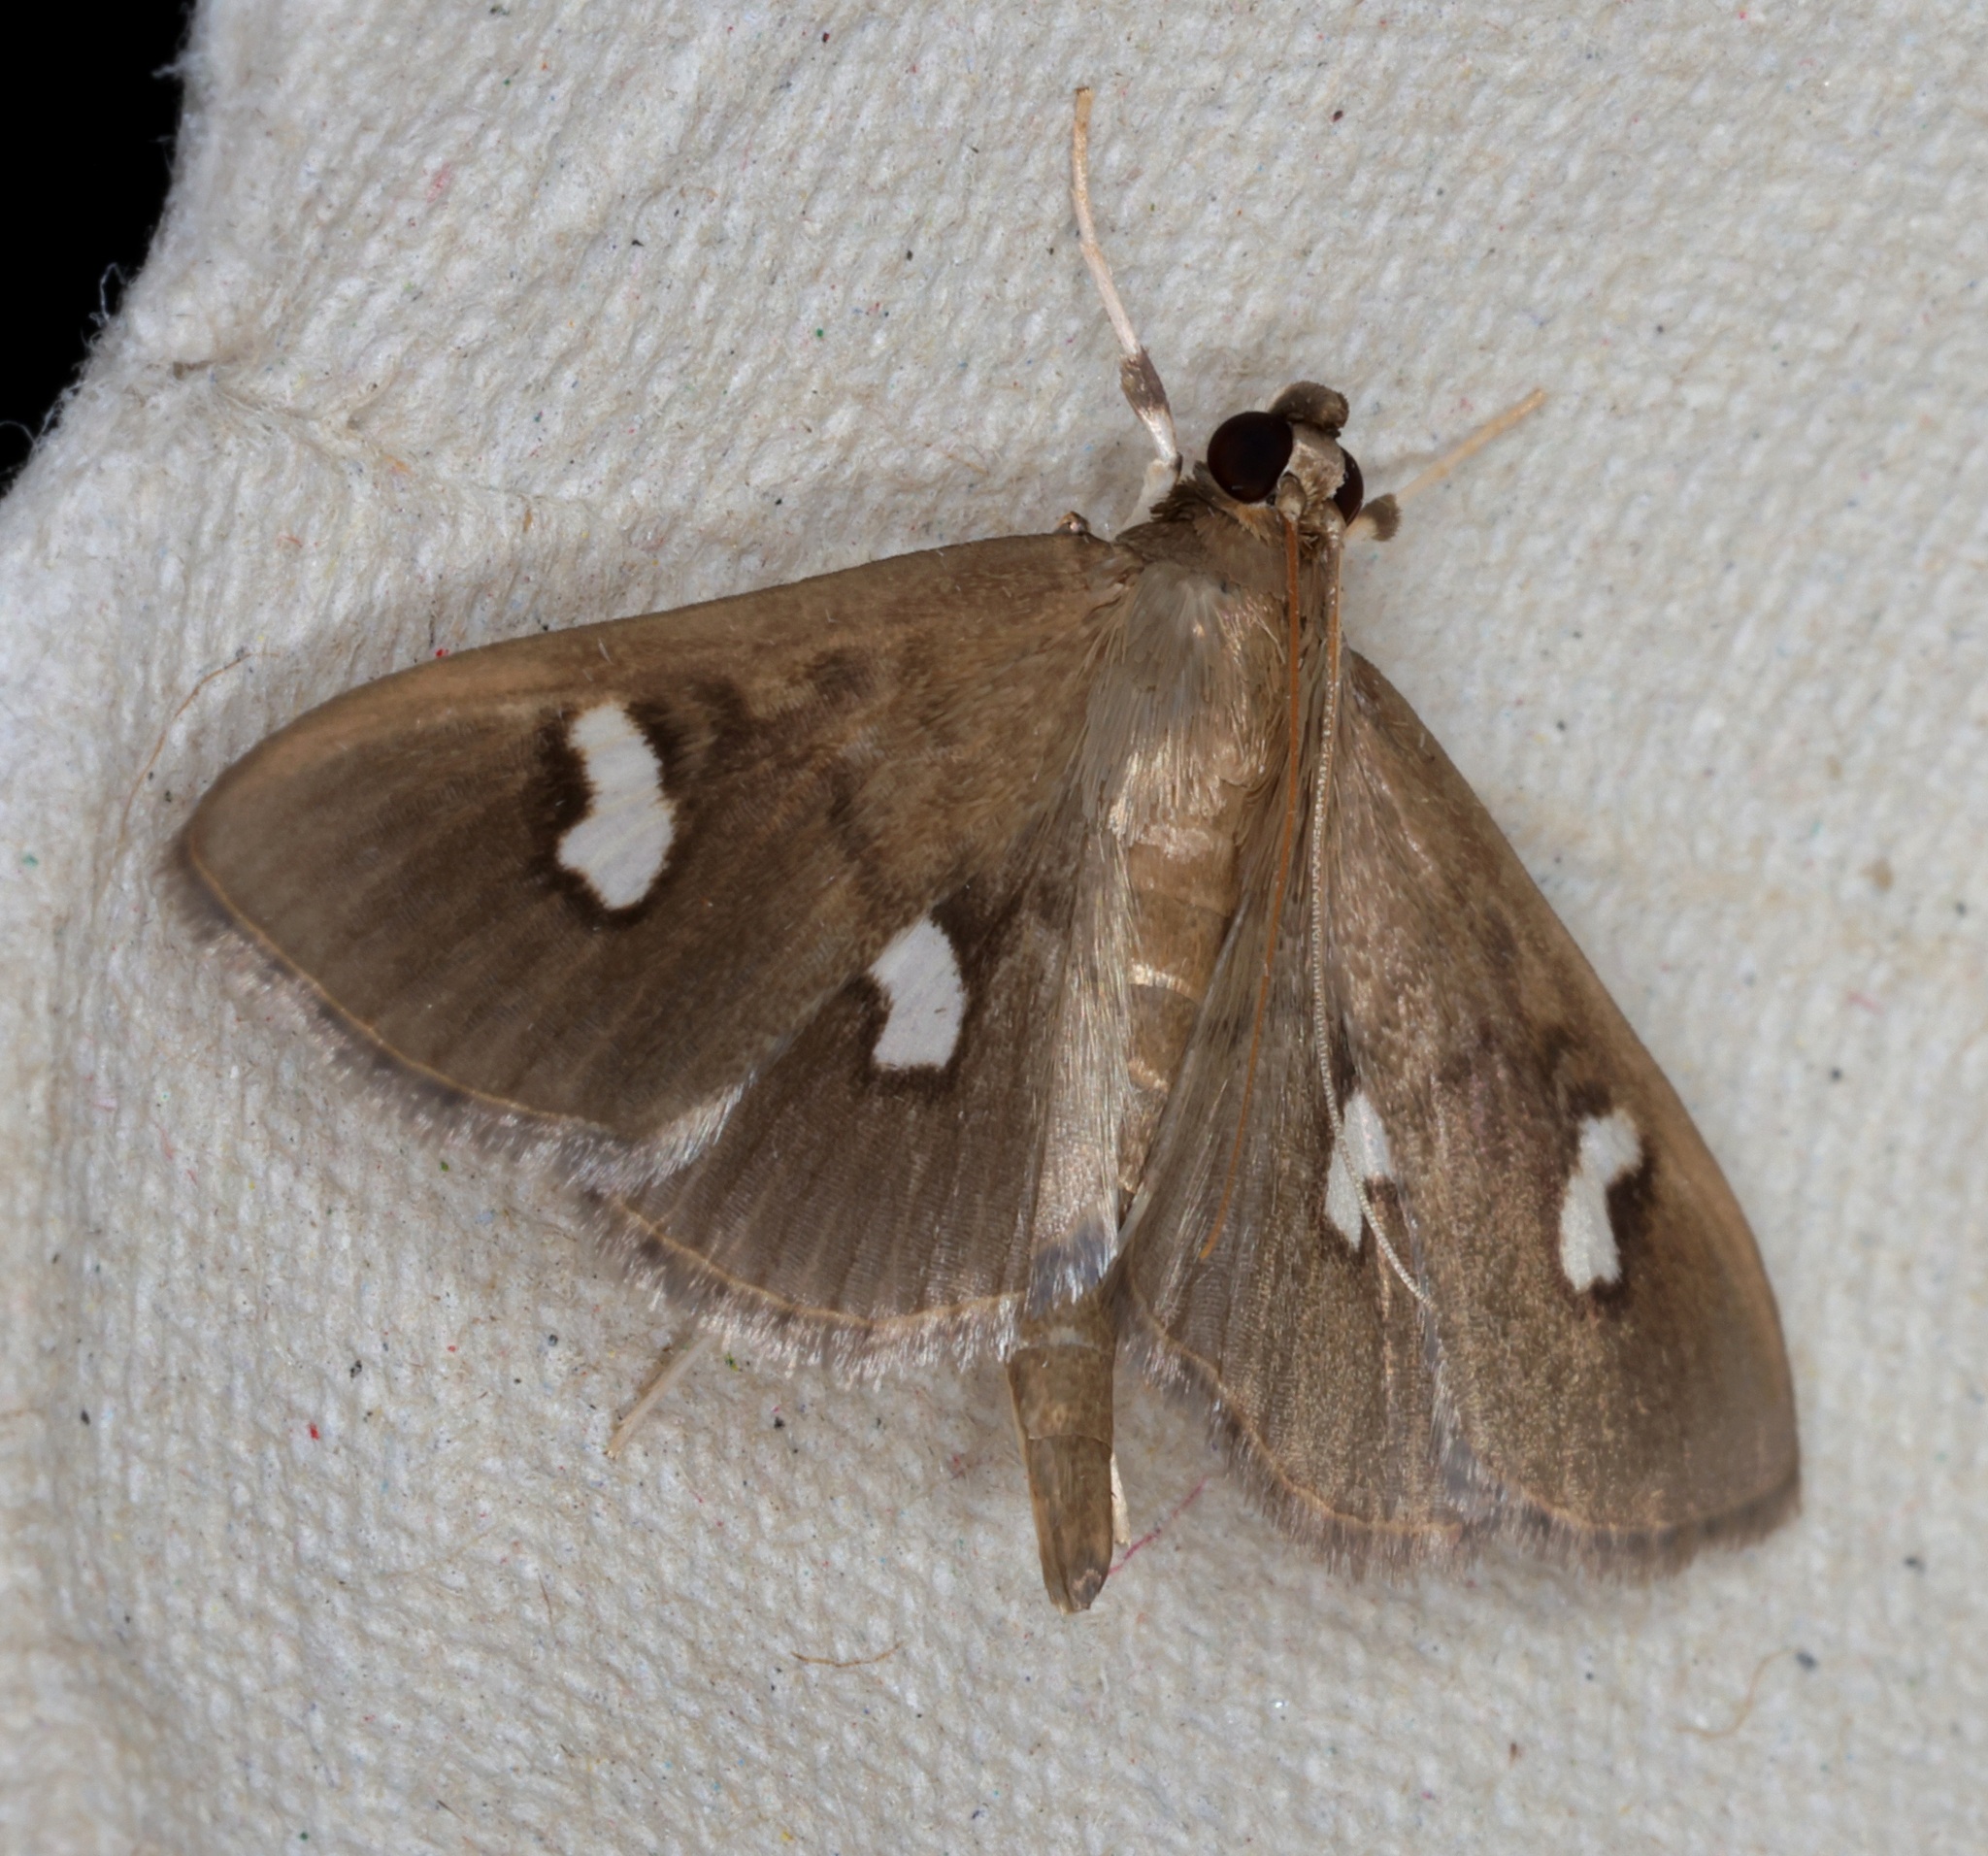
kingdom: Animalia
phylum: Arthropoda
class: Insecta
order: Lepidoptera
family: Crambidae
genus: Nagiella
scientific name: Nagiella inferior
